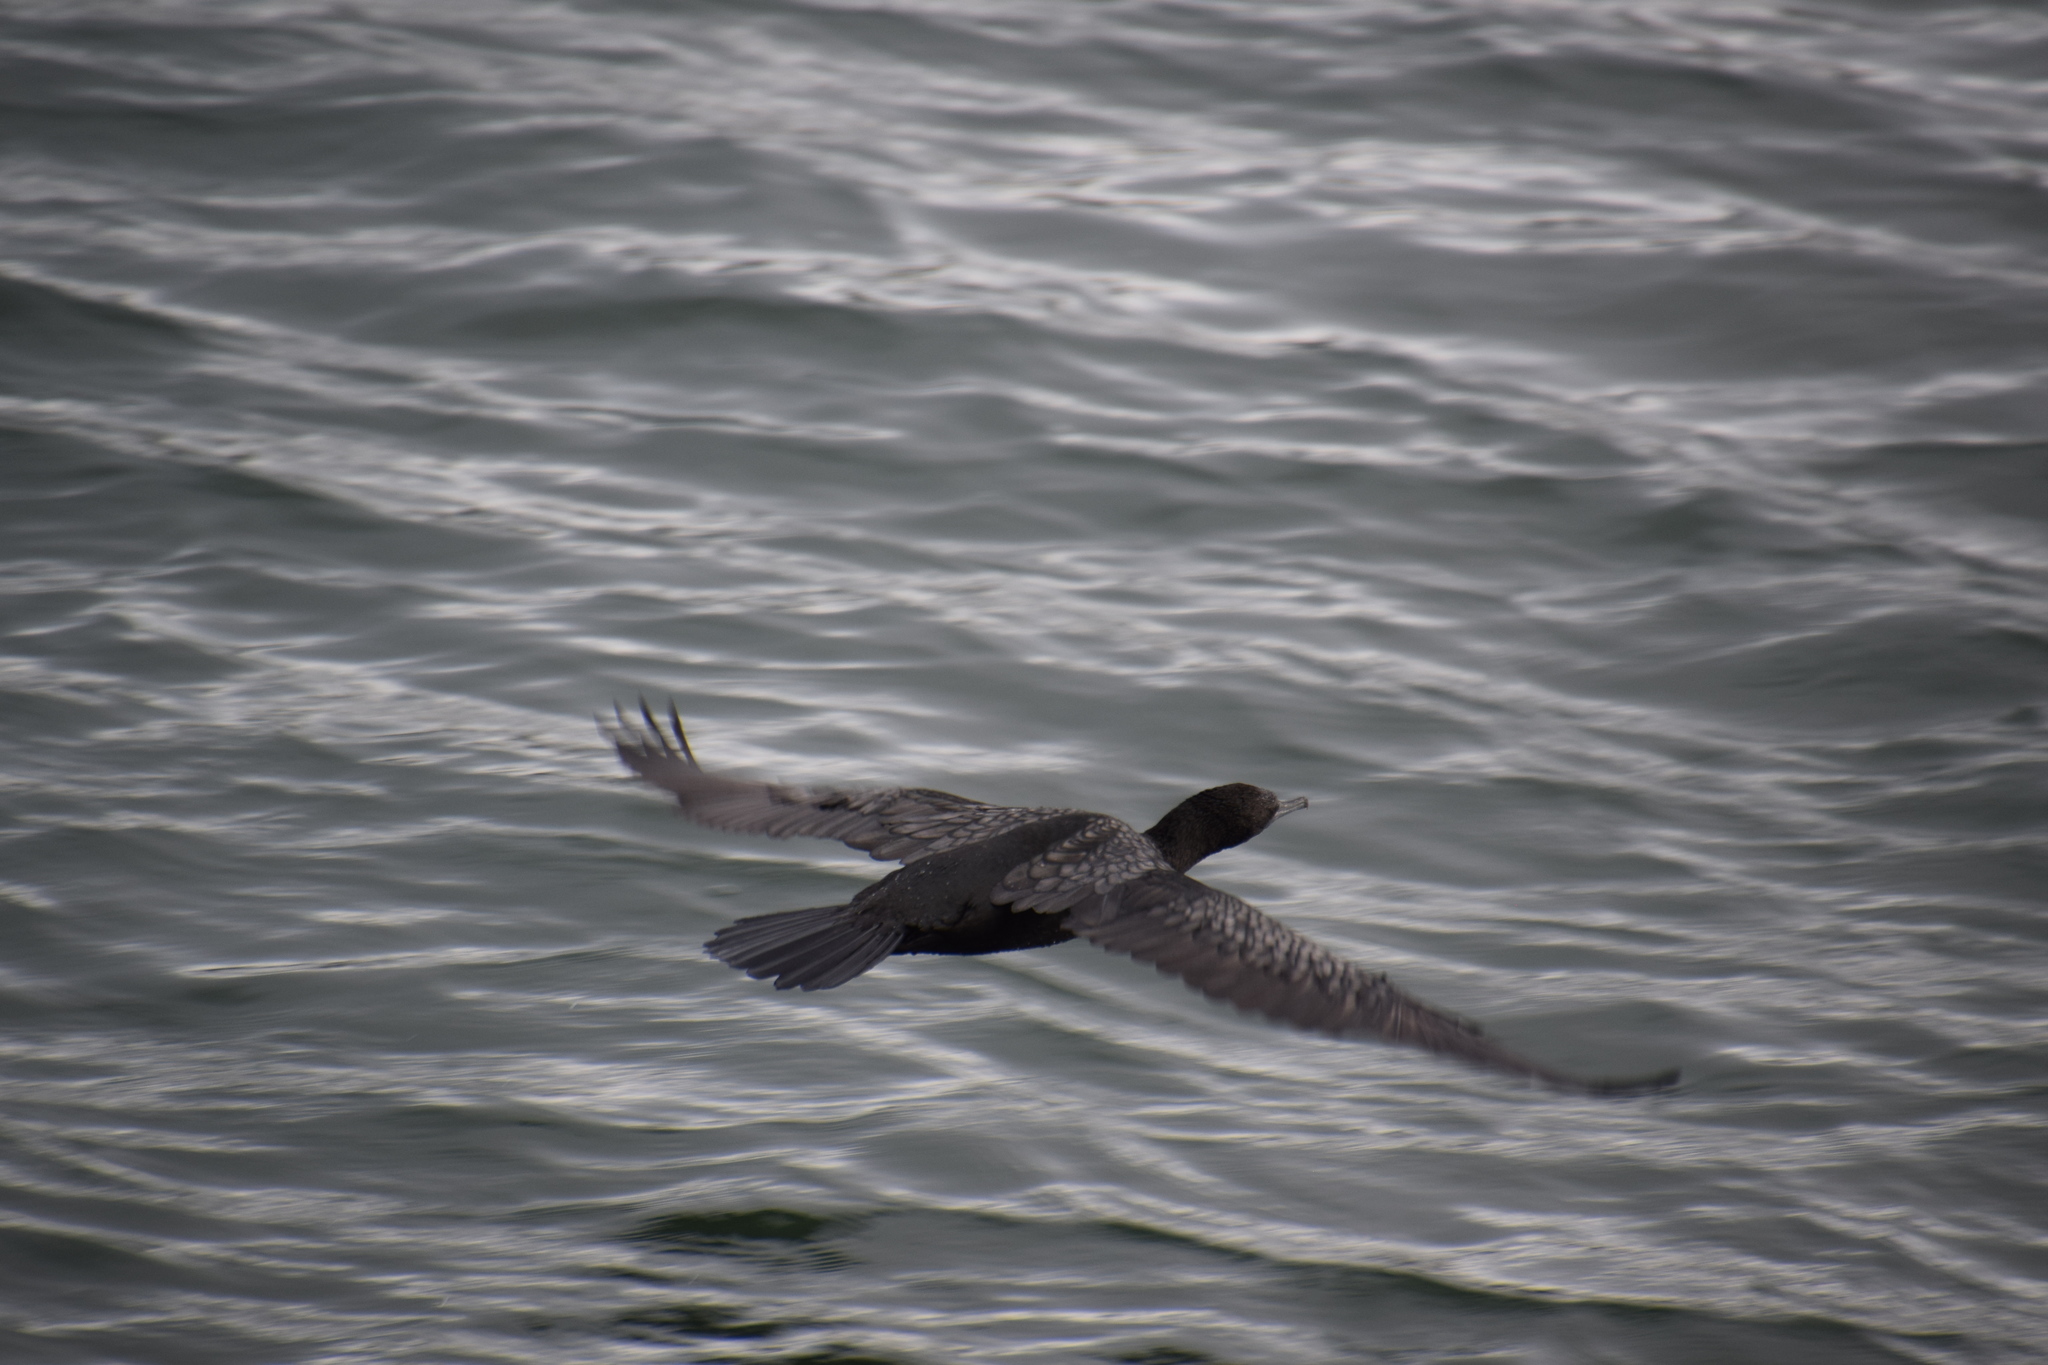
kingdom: Animalia
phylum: Chordata
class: Aves
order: Suliformes
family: Phalacrocoracidae
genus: Phalacrocorax
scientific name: Phalacrocorax sulcirostris
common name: Little black cormorant
